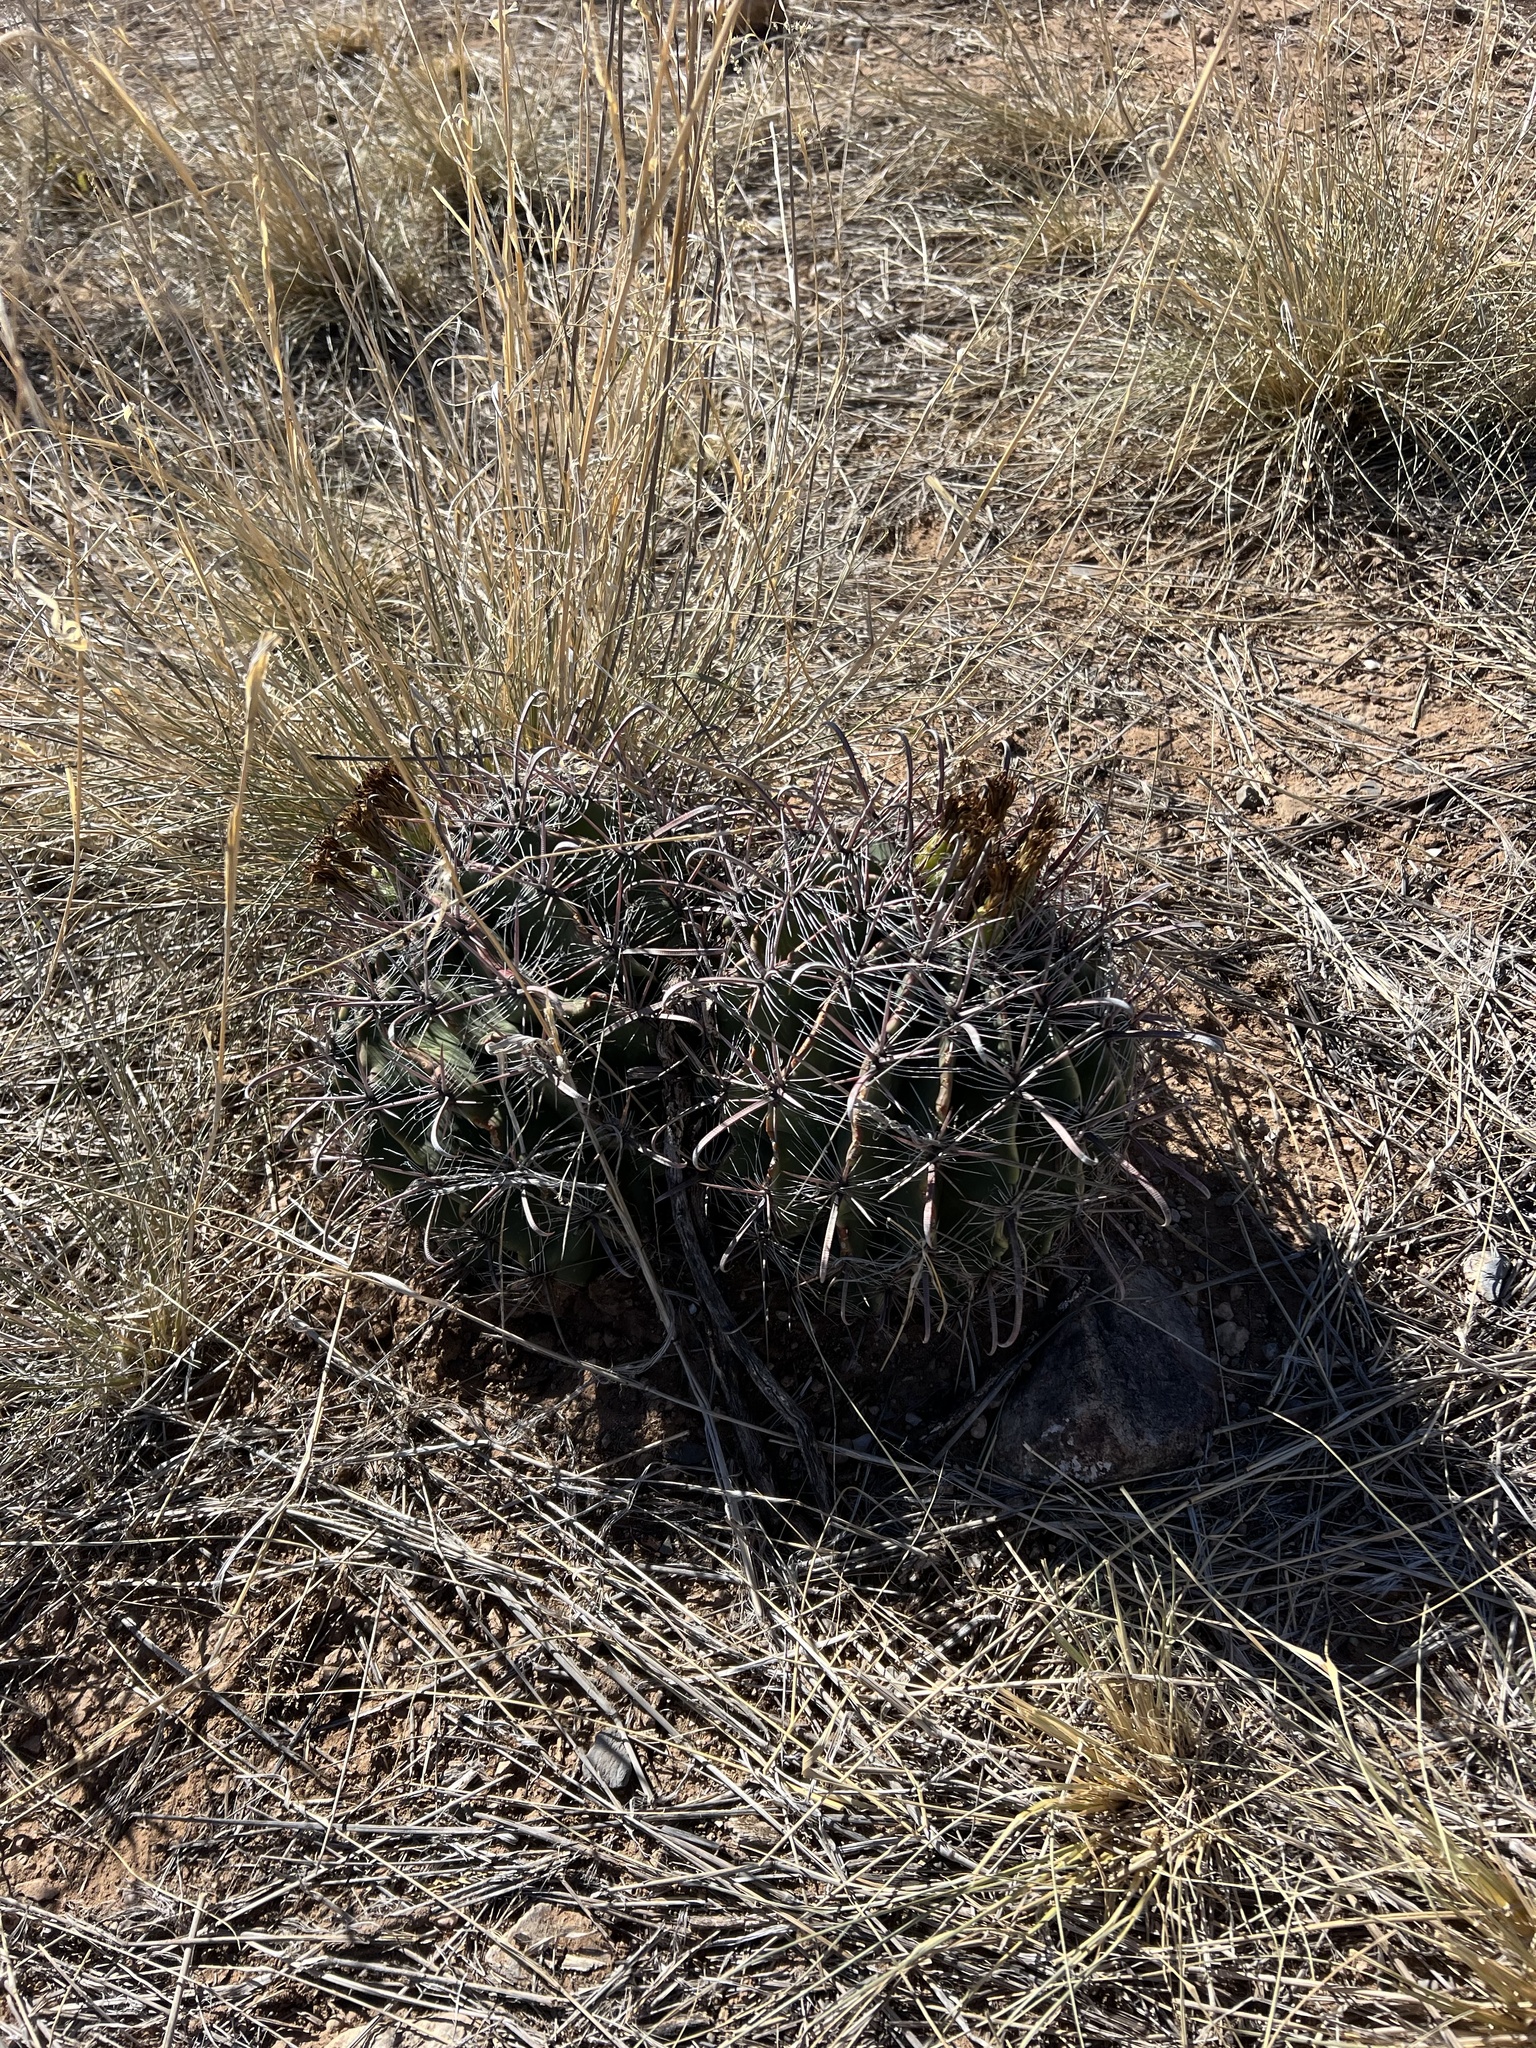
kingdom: Plantae
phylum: Tracheophyta
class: Magnoliopsida
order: Caryophyllales
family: Cactaceae
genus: Ferocactus
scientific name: Ferocactus wislizeni
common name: Candy barrel cactus
